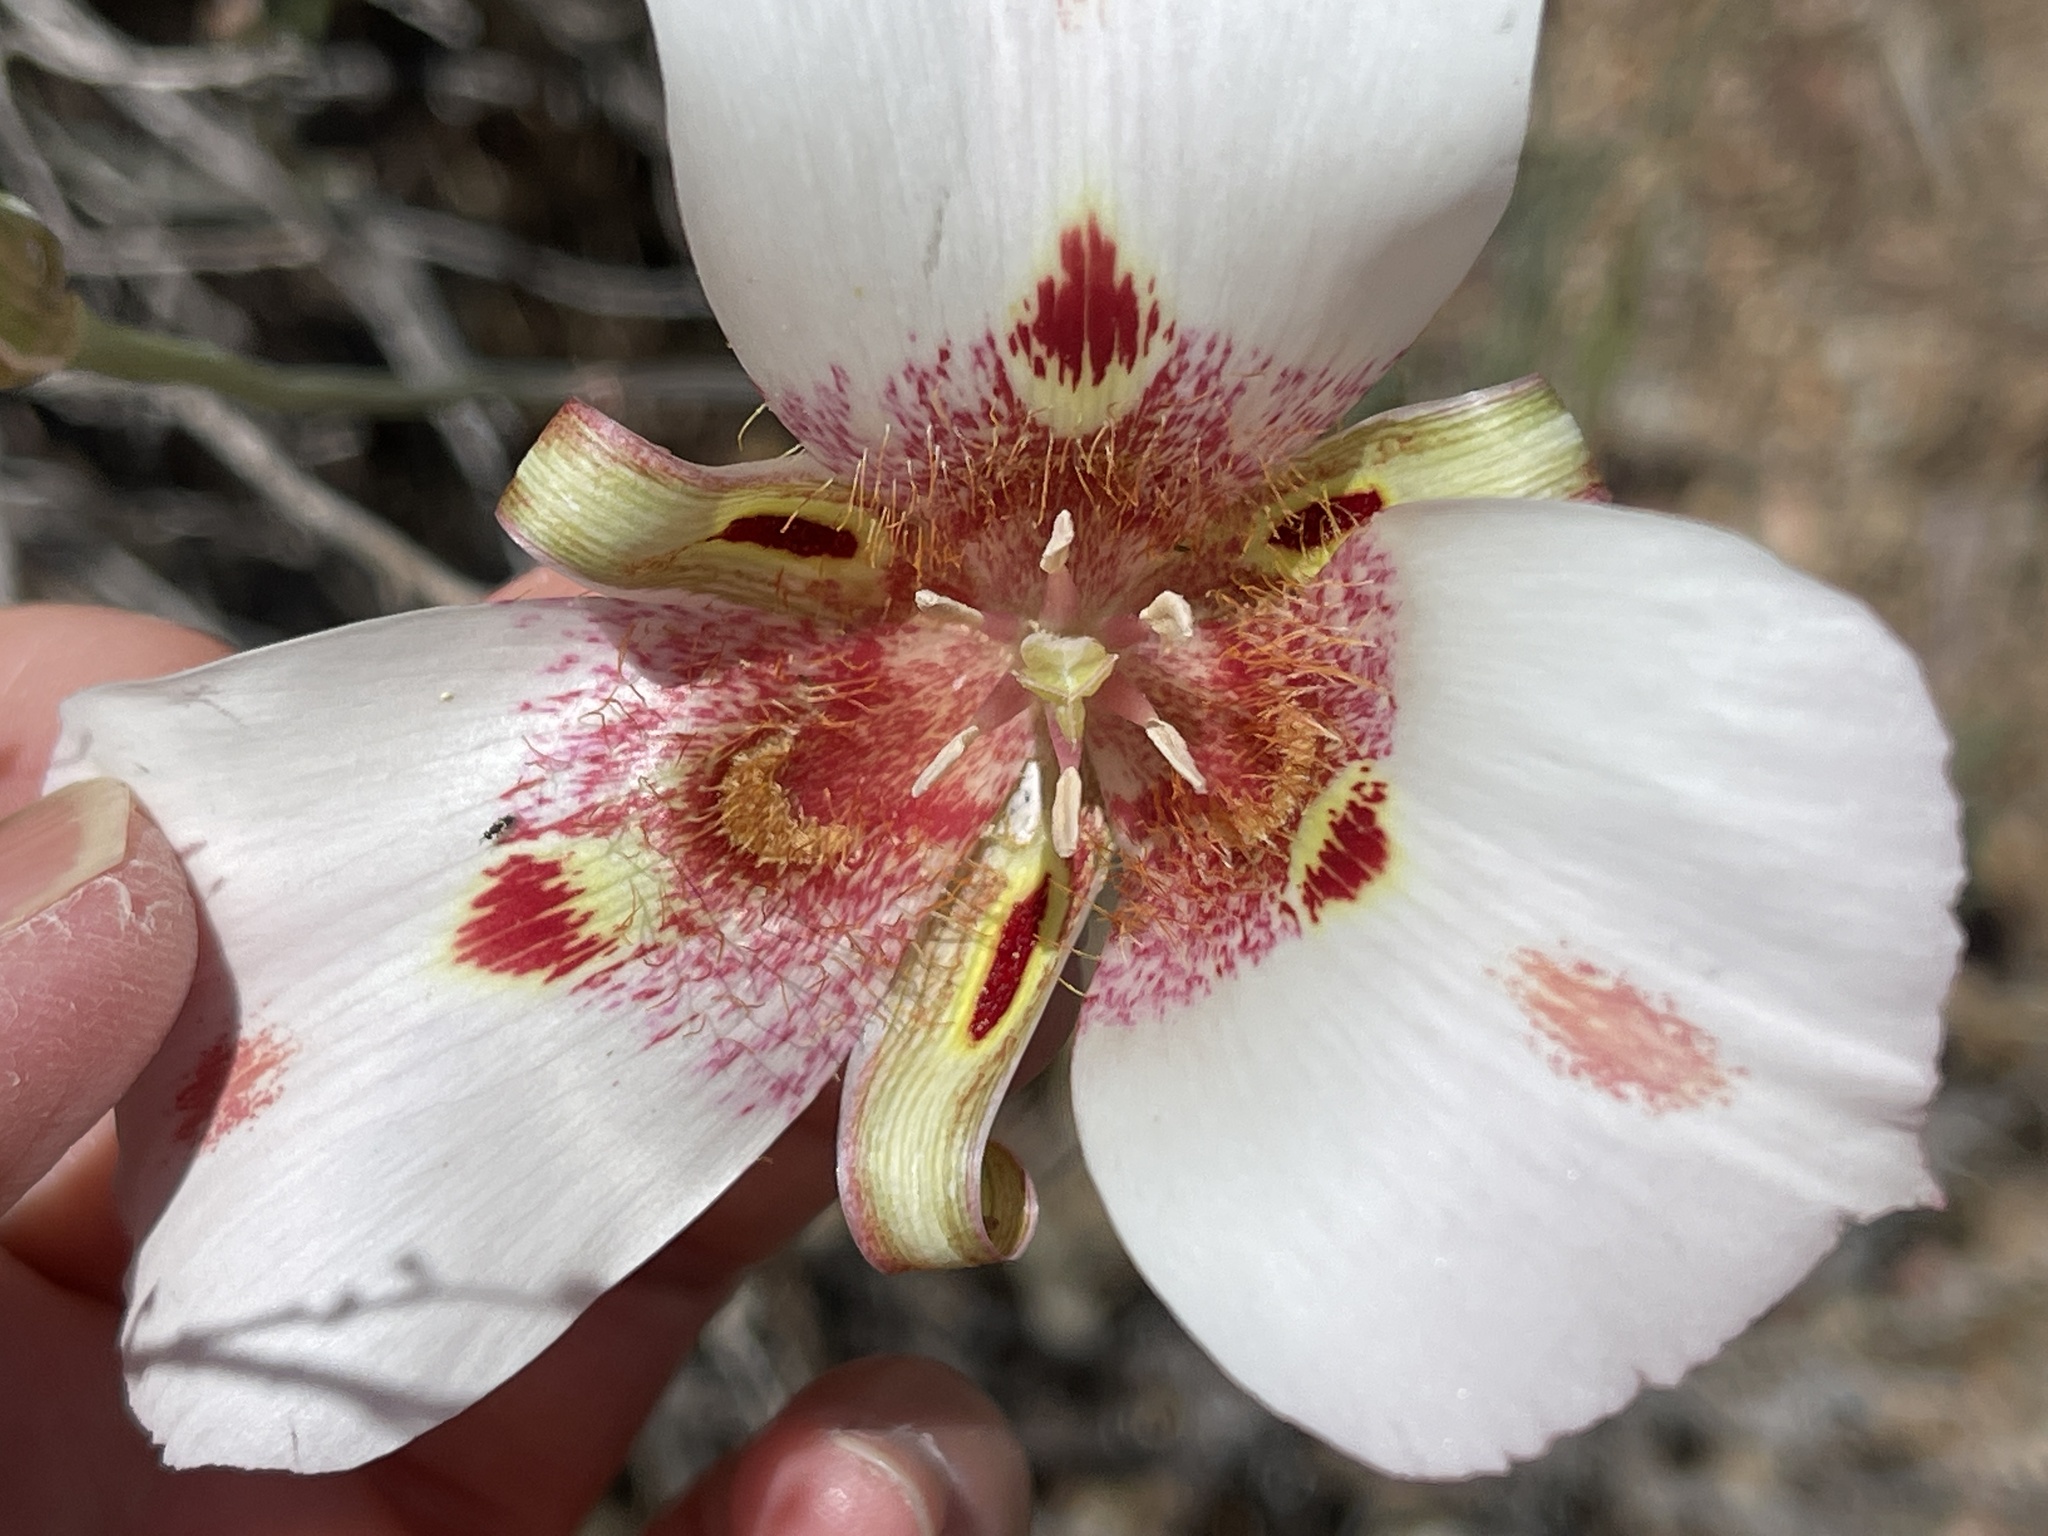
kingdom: Plantae
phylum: Tracheophyta
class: Liliopsida
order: Liliales
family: Liliaceae
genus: Calochortus
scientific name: Calochortus venustus
